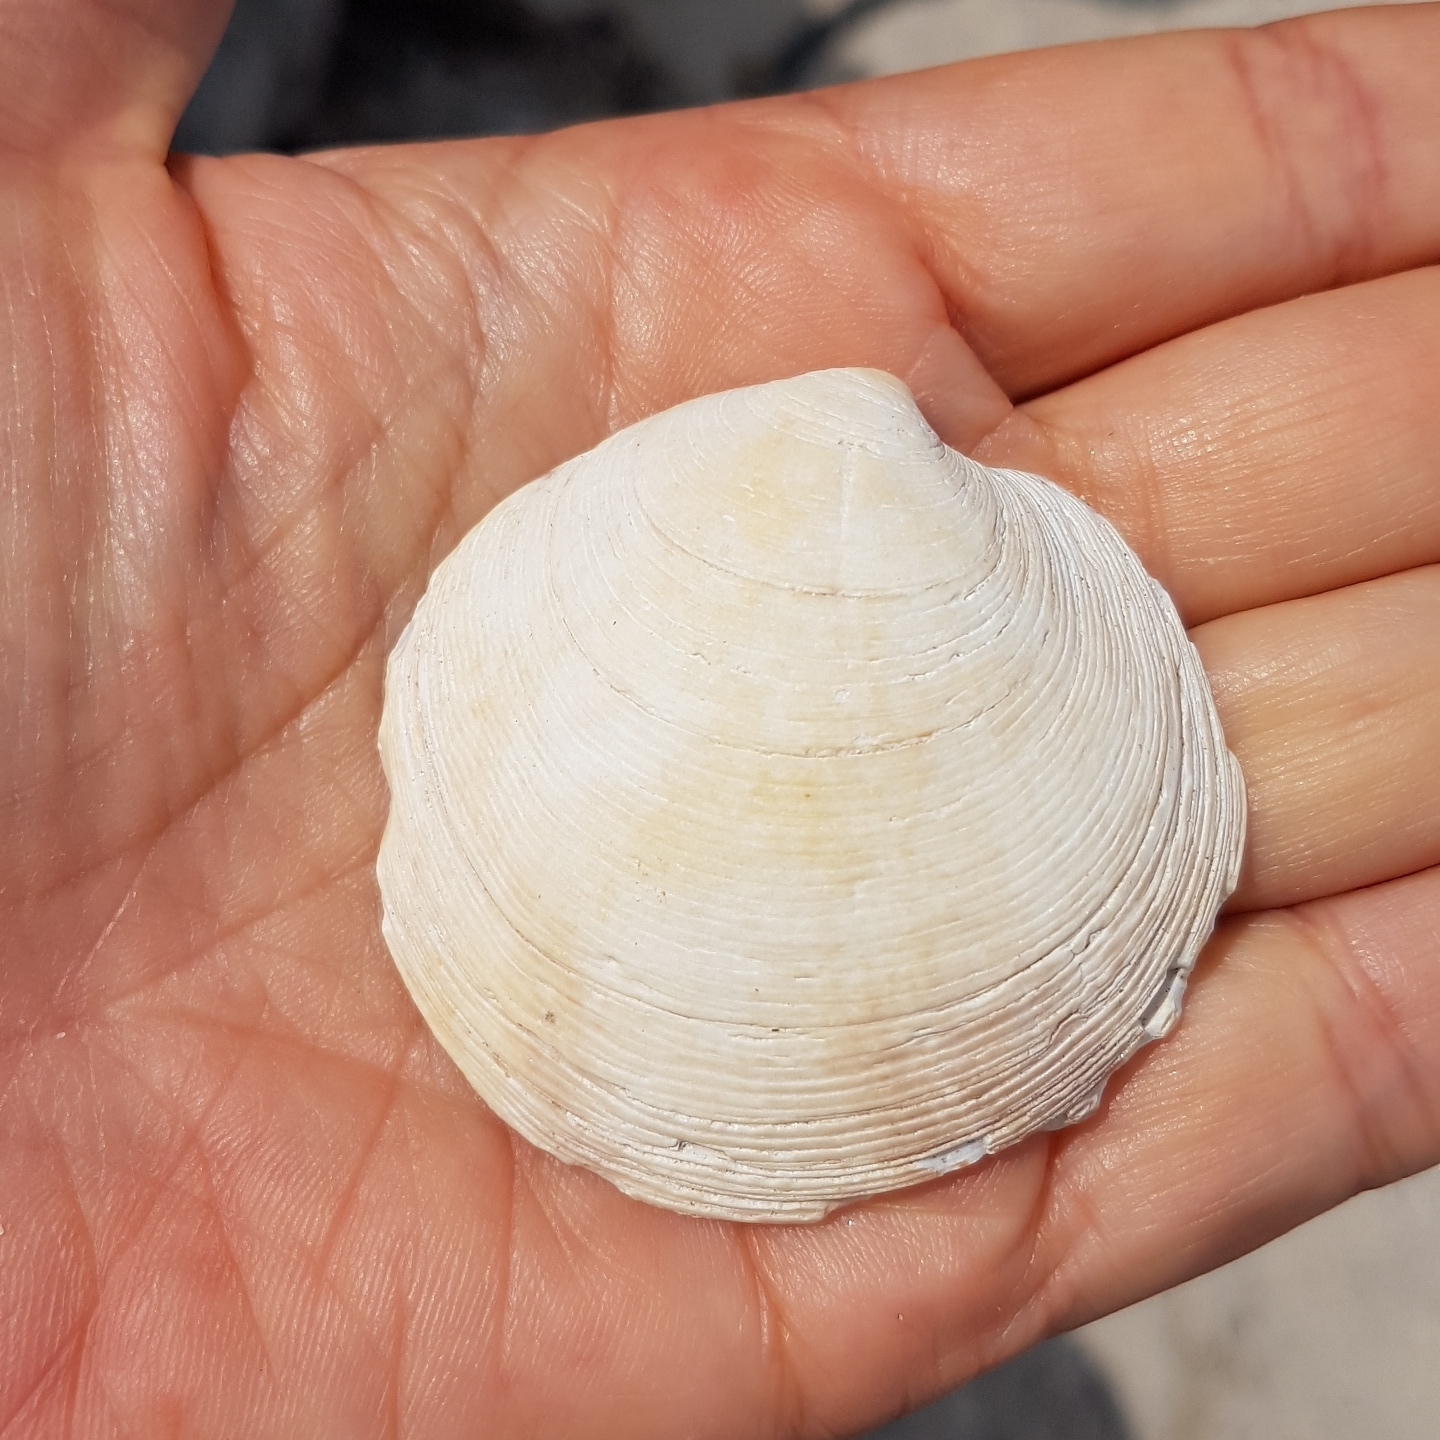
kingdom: Animalia
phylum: Mollusca
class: Bivalvia
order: Venerida
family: Veneridae
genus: Dosinia
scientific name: Dosinia exoleta
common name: Rayed artemis
